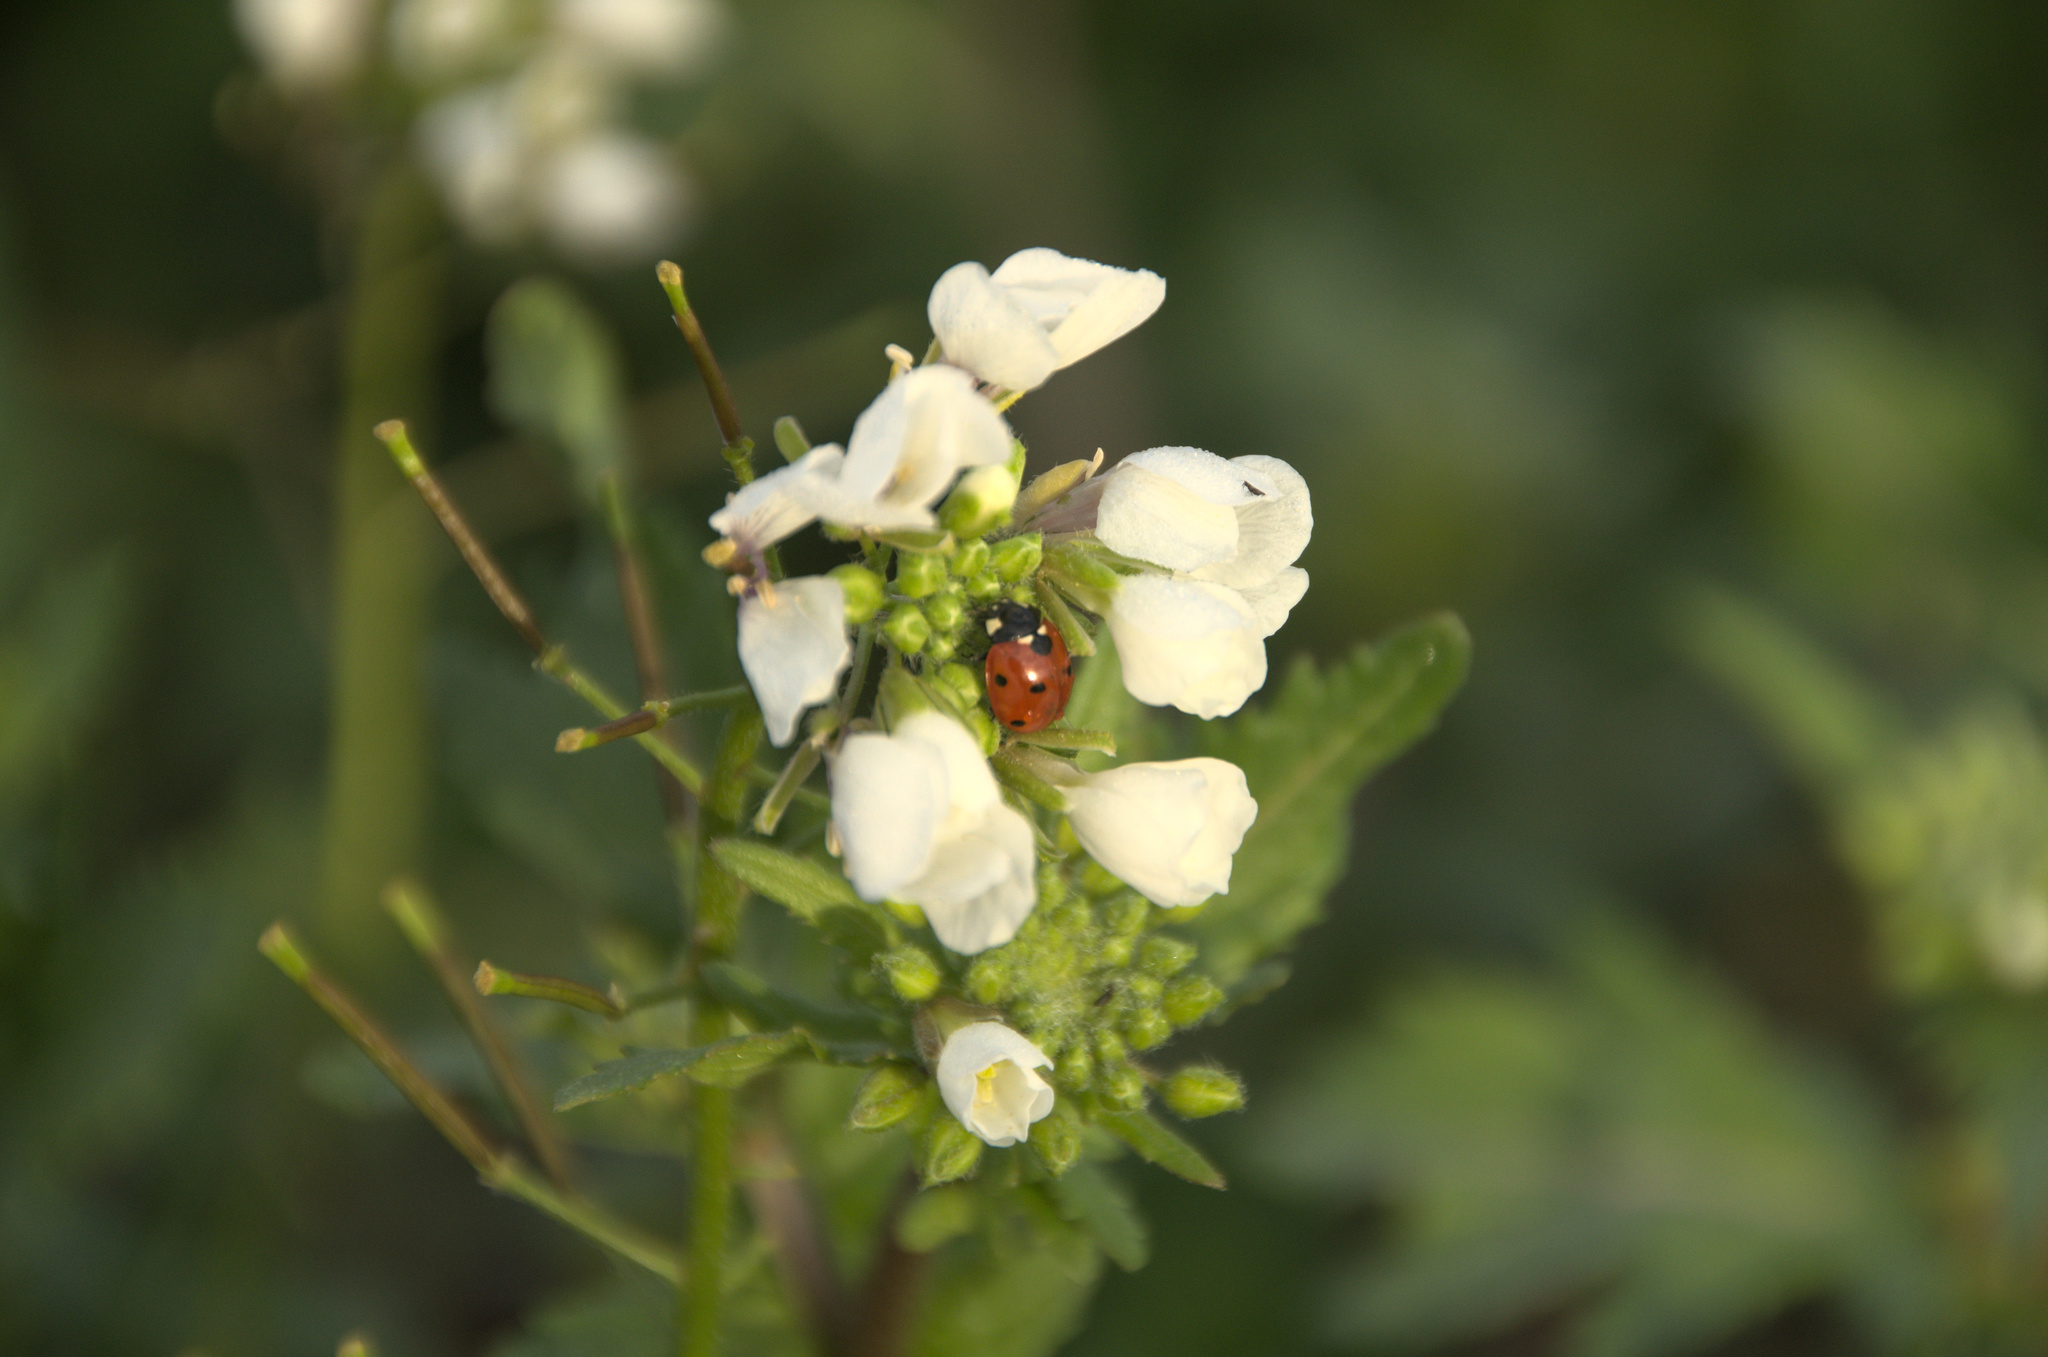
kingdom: Animalia
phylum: Arthropoda
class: Insecta
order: Coleoptera
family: Coccinellidae
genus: Coccinella
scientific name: Coccinella septempunctata
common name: Sevenspotted lady beetle
